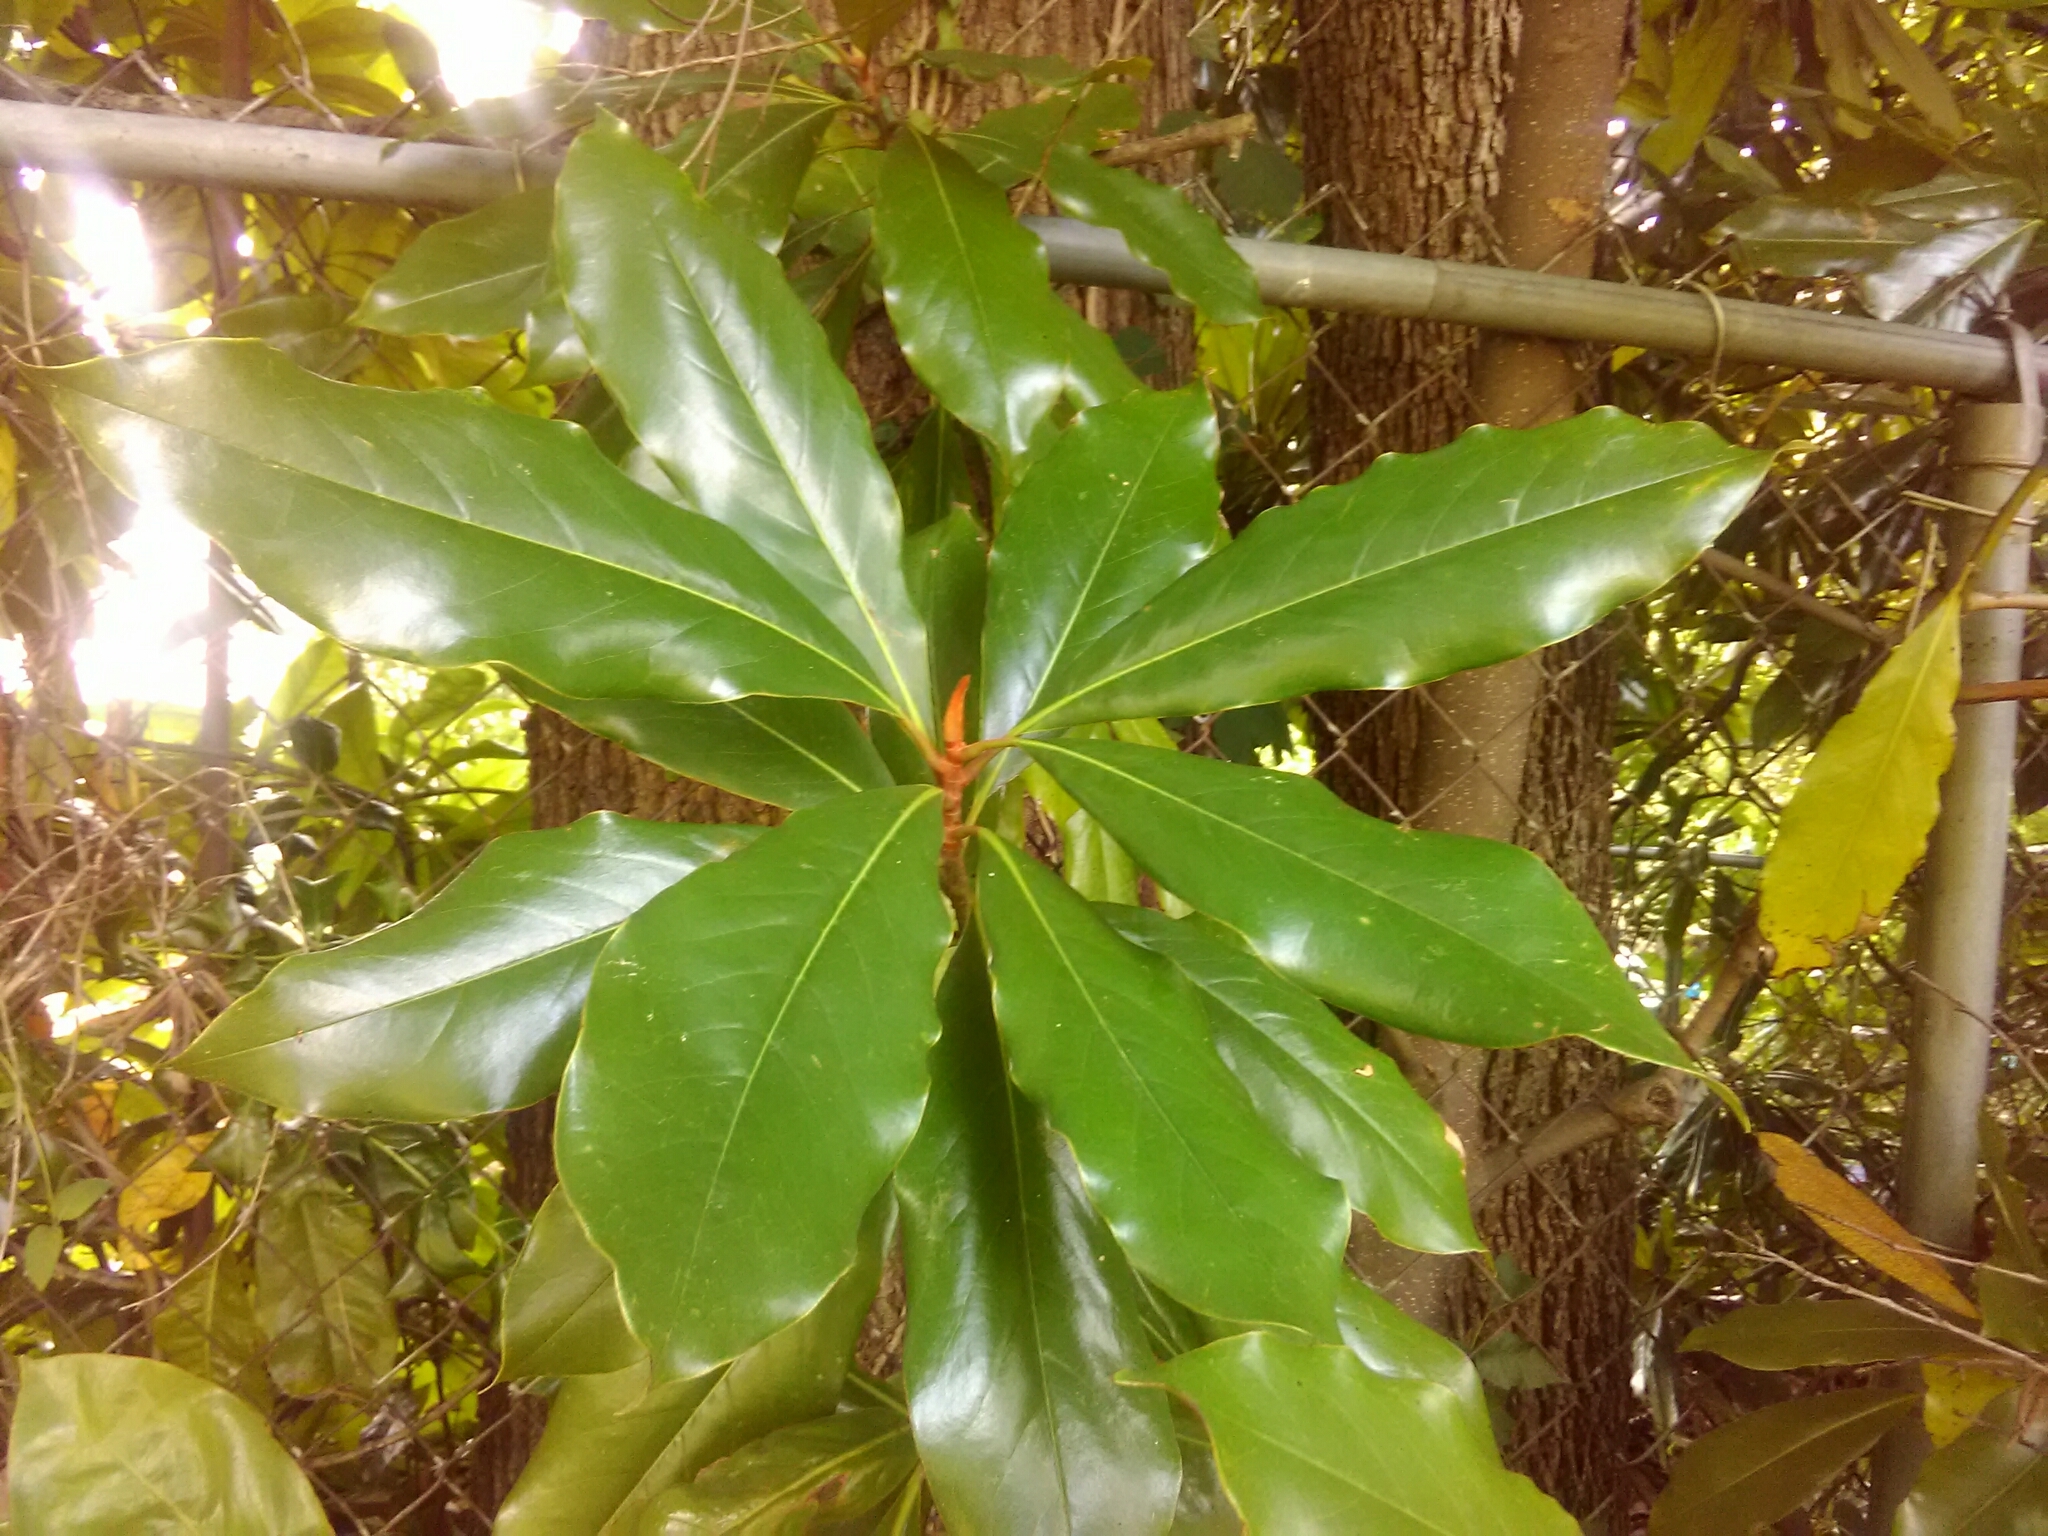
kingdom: Plantae
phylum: Tracheophyta
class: Magnoliopsida
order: Magnoliales
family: Magnoliaceae
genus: Magnolia
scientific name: Magnolia grandiflora
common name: Southern magnolia
